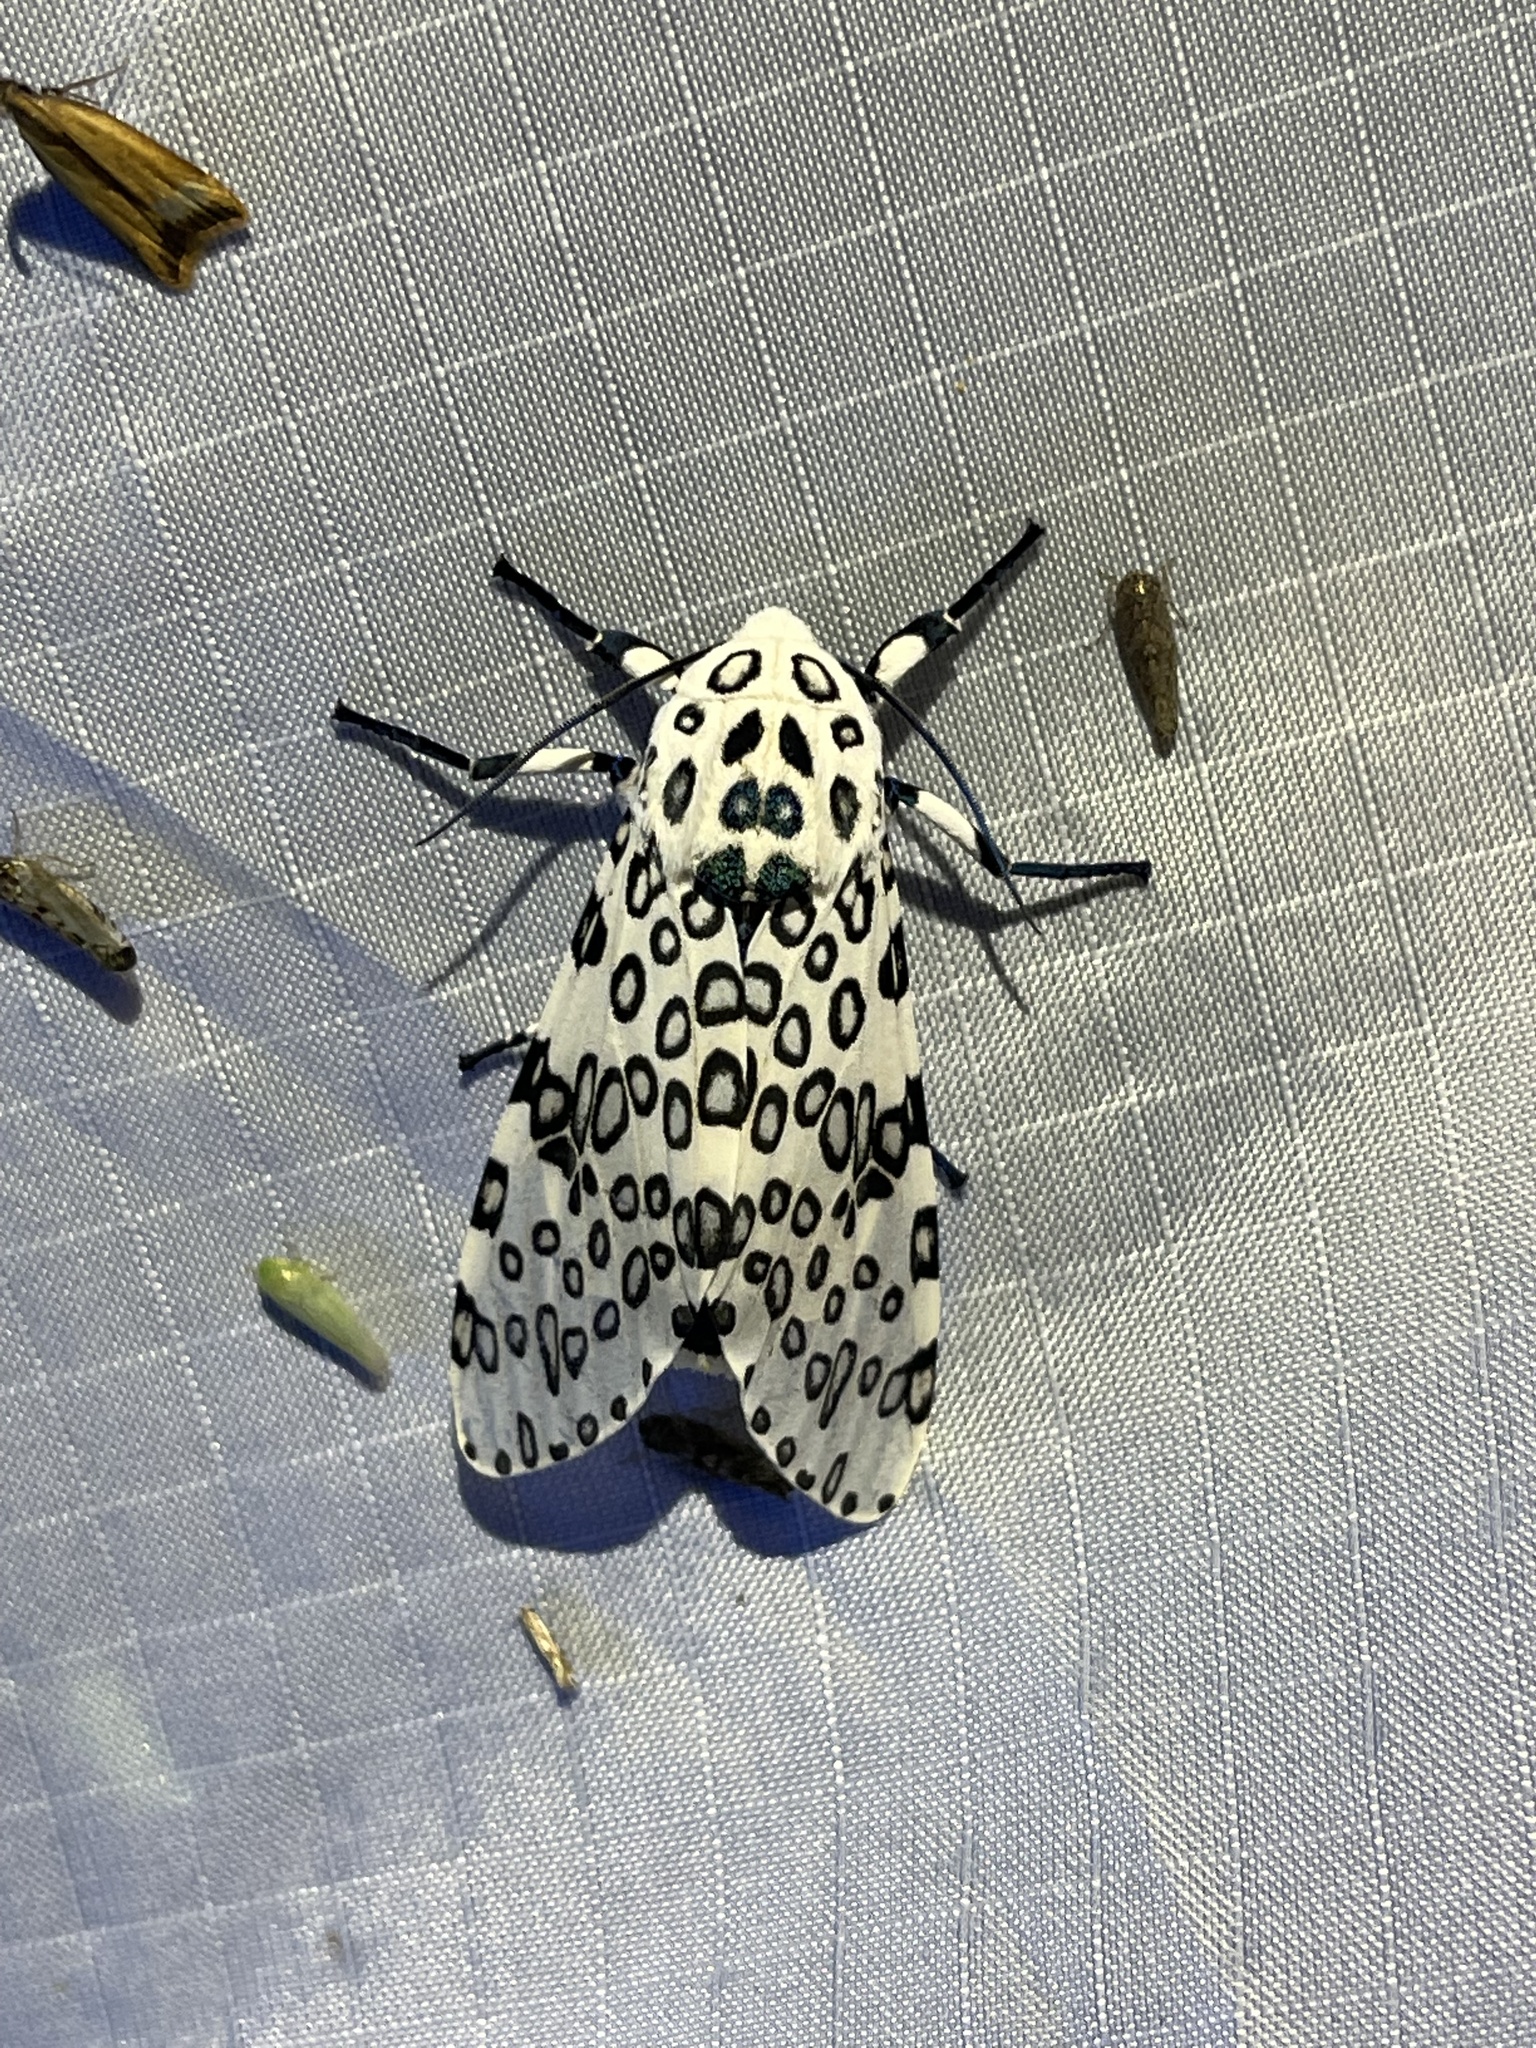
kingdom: Animalia
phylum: Arthropoda
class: Insecta
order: Lepidoptera
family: Erebidae
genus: Hypercompe
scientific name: Hypercompe scribonia
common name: Giant leopard moth
